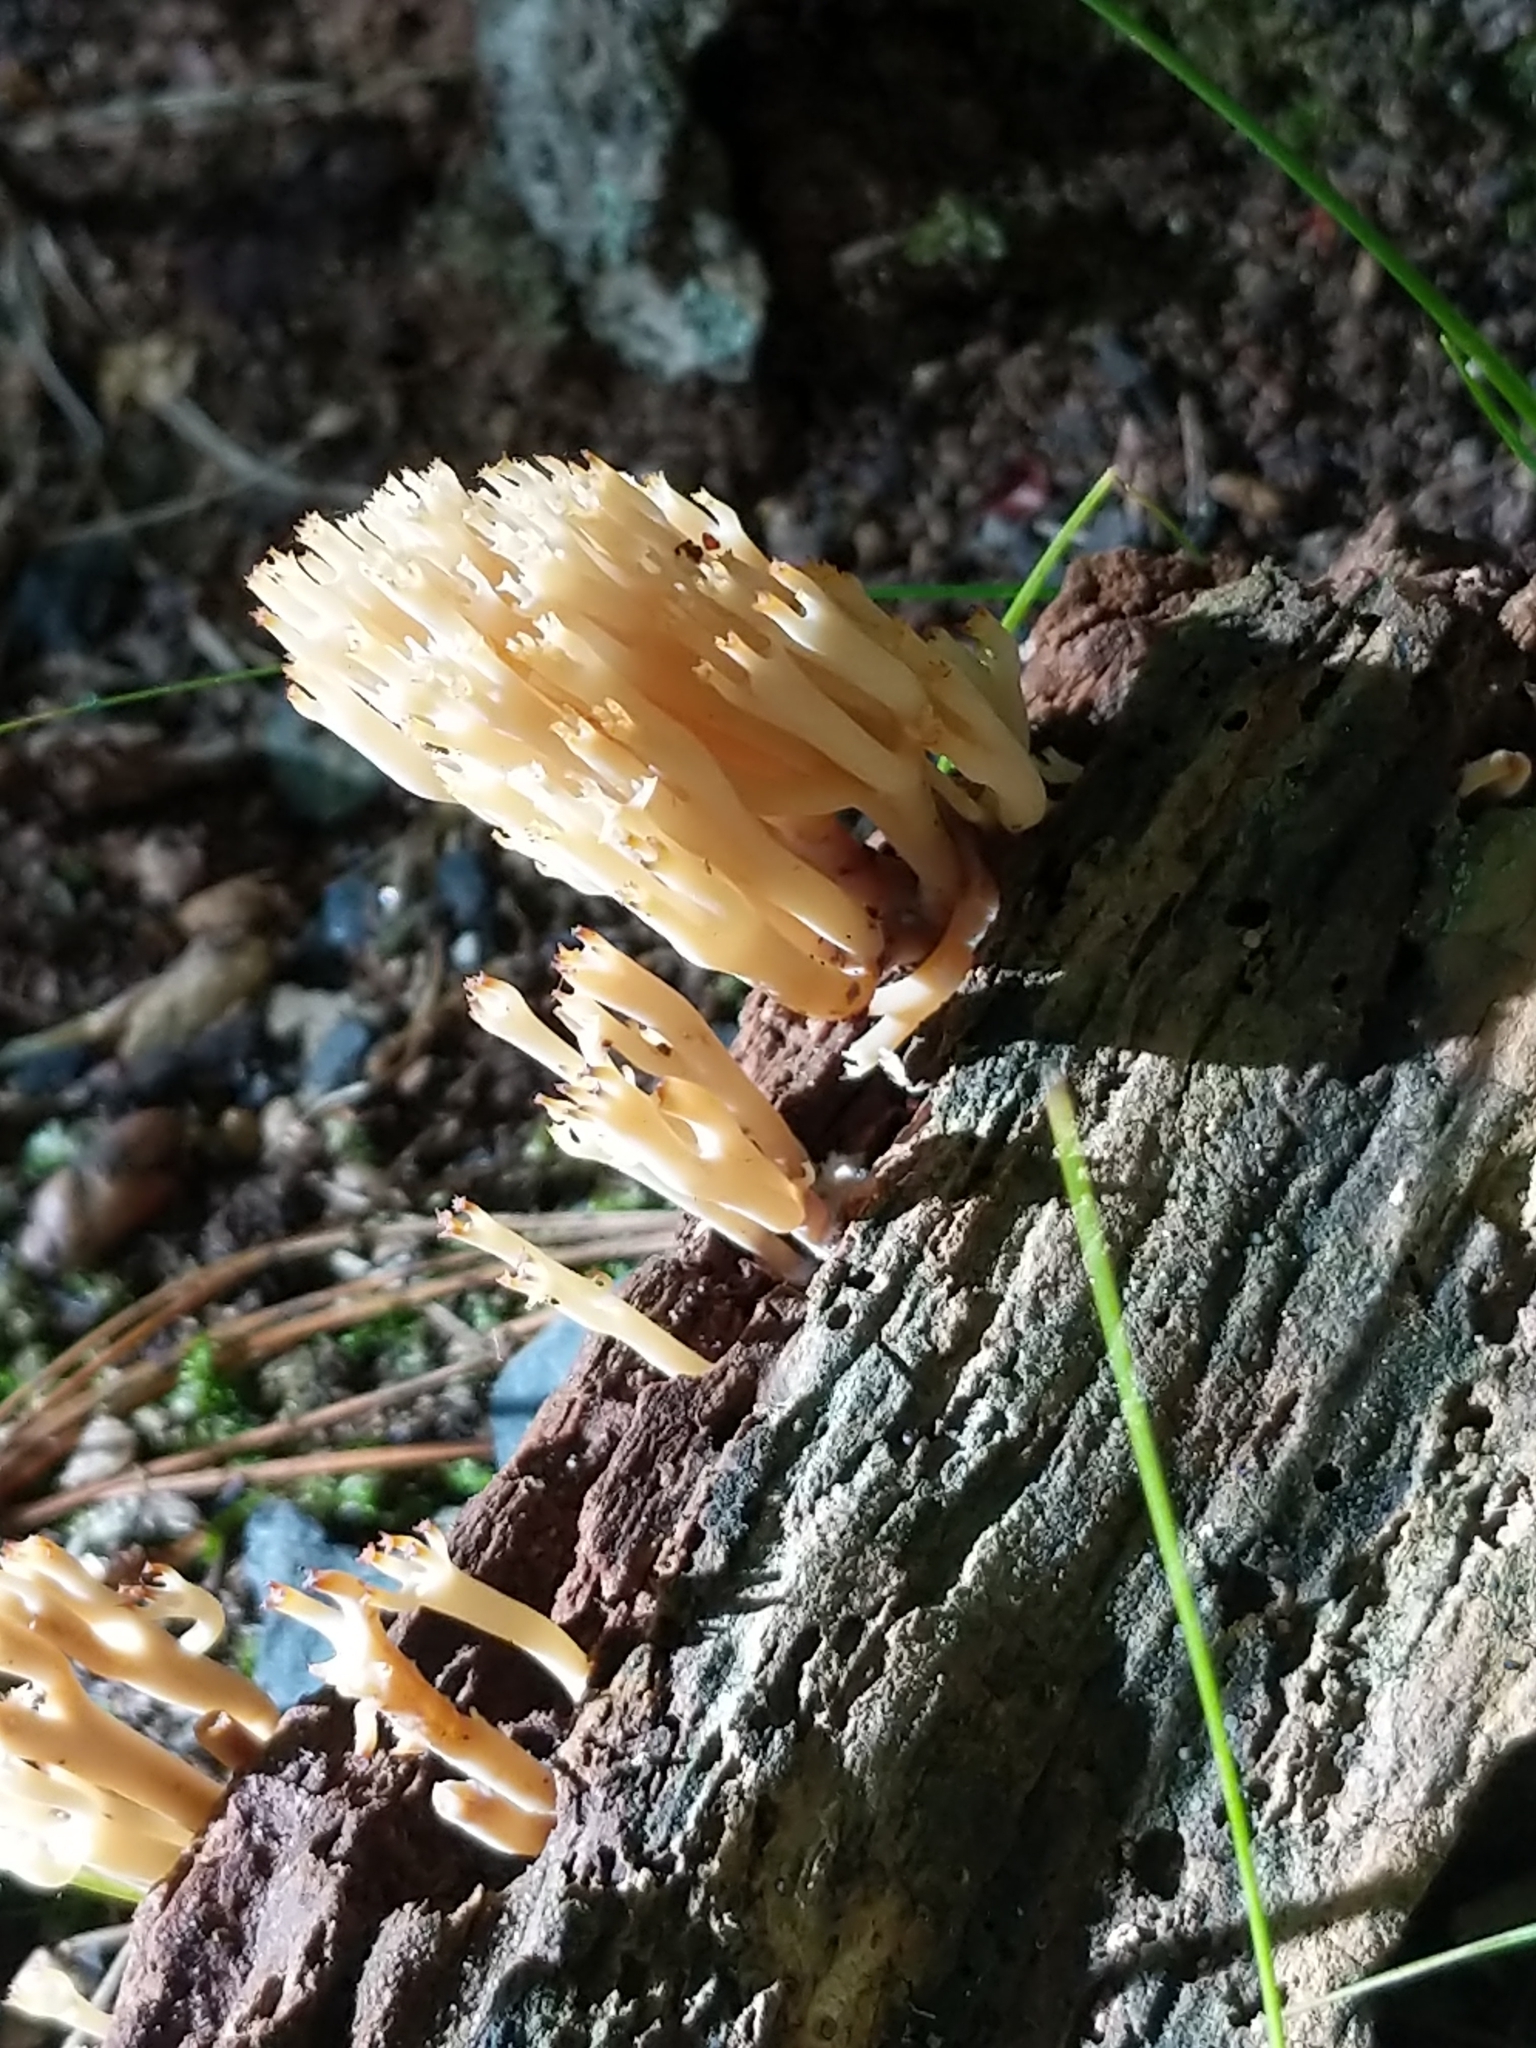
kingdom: Fungi
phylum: Basidiomycota
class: Agaricomycetes
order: Russulales
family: Auriscalpiaceae
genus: Artomyces
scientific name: Artomyces pyxidatus
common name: Crown-tipped coral fungus
